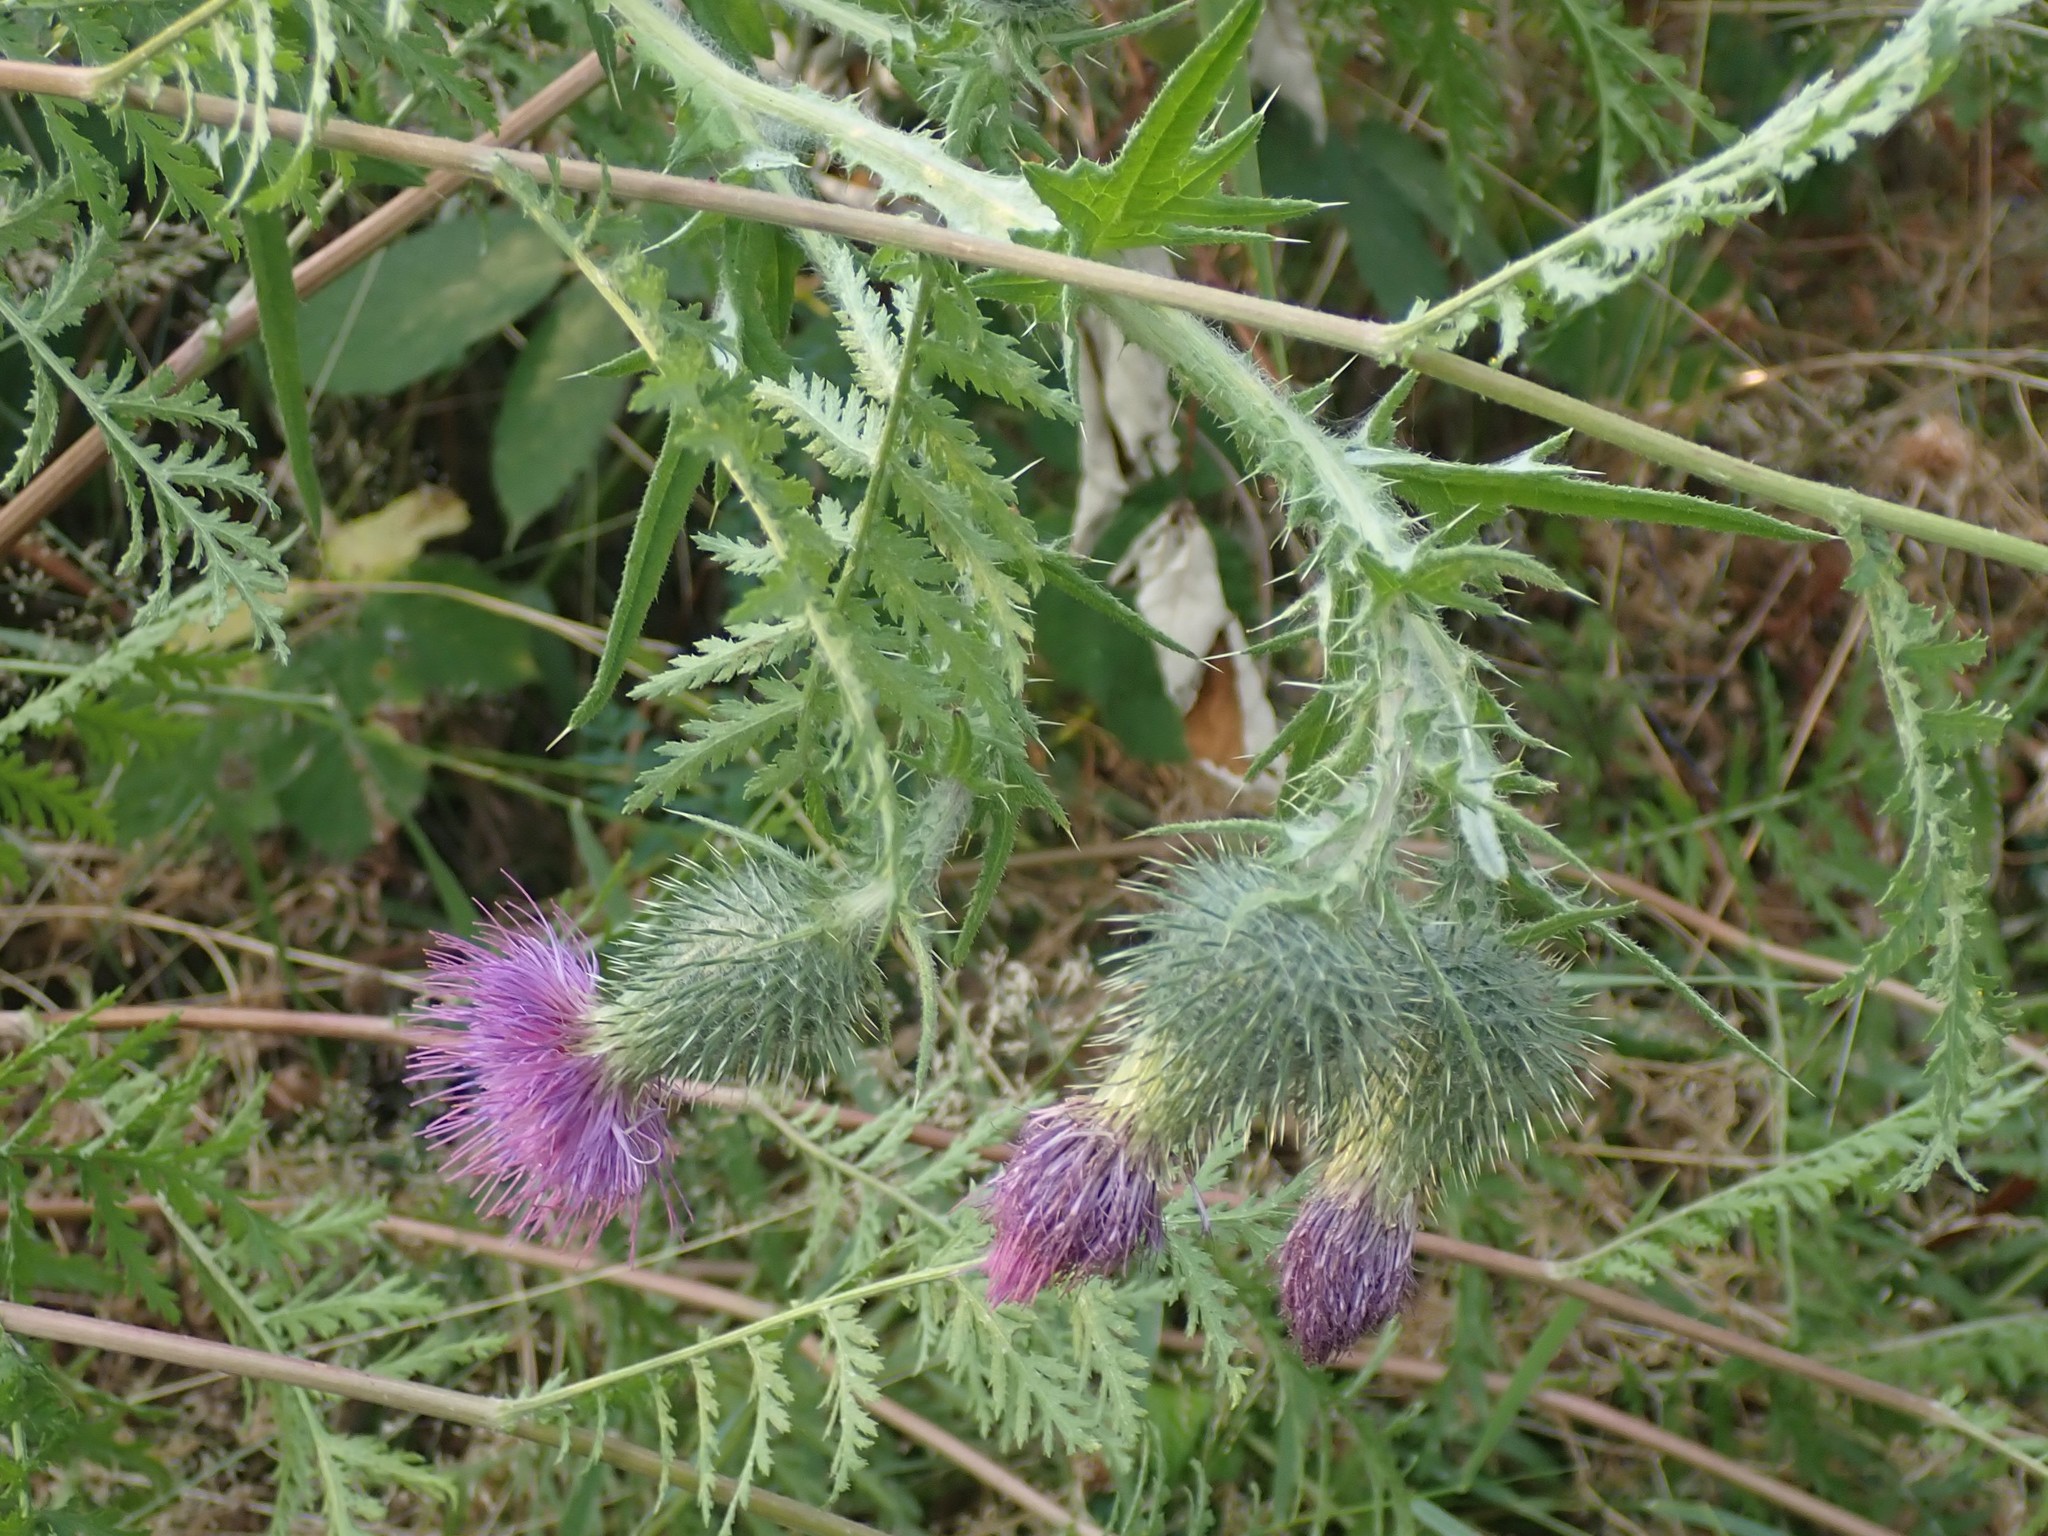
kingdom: Plantae
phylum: Tracheophyta
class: Magnoliopsida
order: Asterales
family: Asteraceae
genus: Cirsium
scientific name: Cirsium vulgare
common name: Bull thistle
